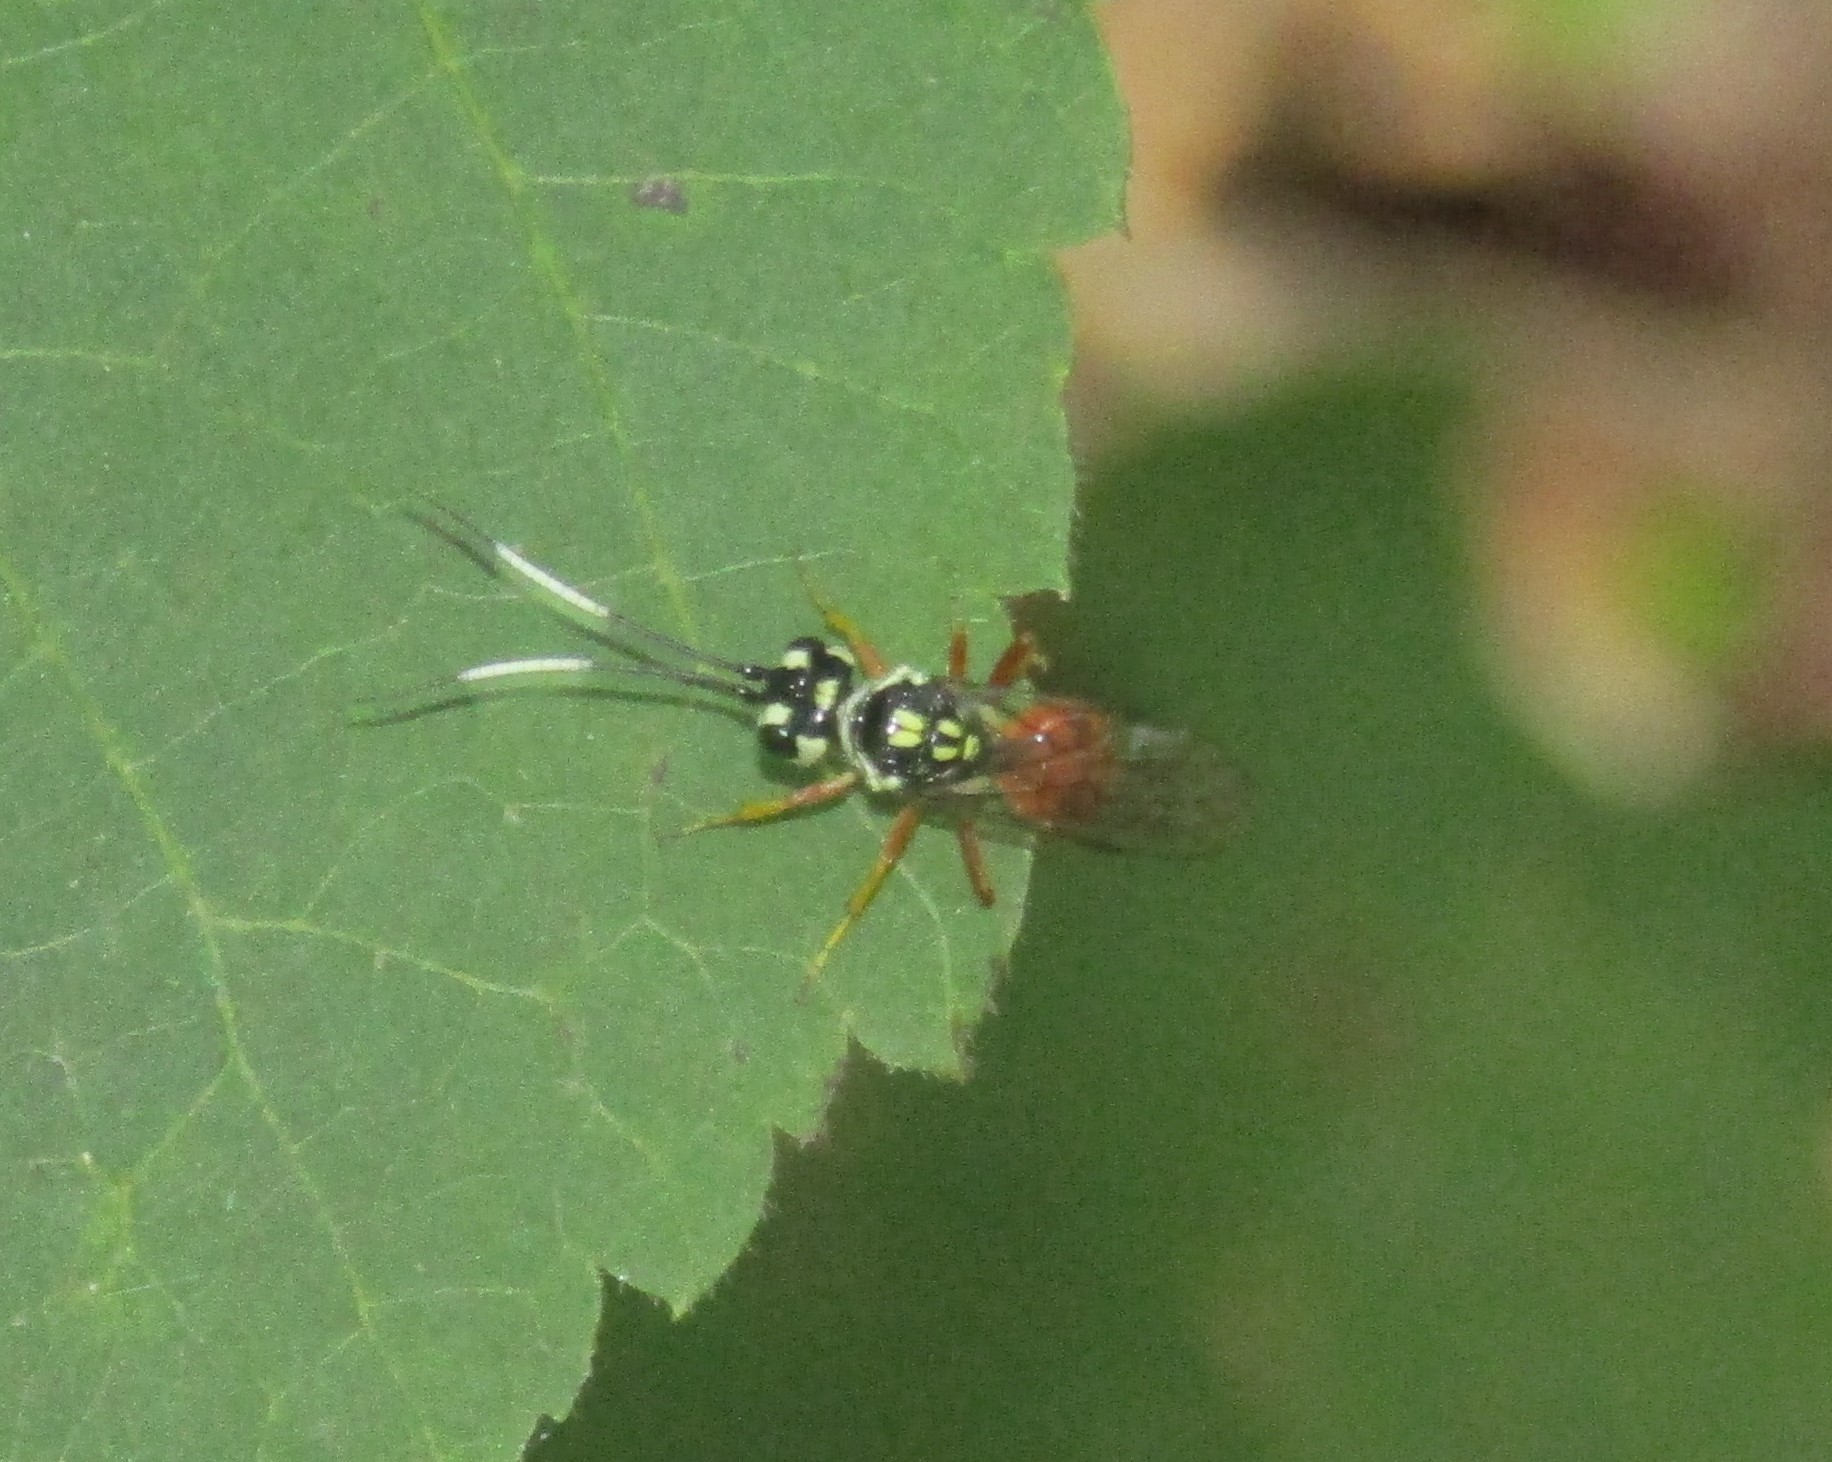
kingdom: Animalia
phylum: Arthropoda
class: Insecta
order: Hymenoptera
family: Trigonalidae
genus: Orthogonalys
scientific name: Orthogonalys pulchella
